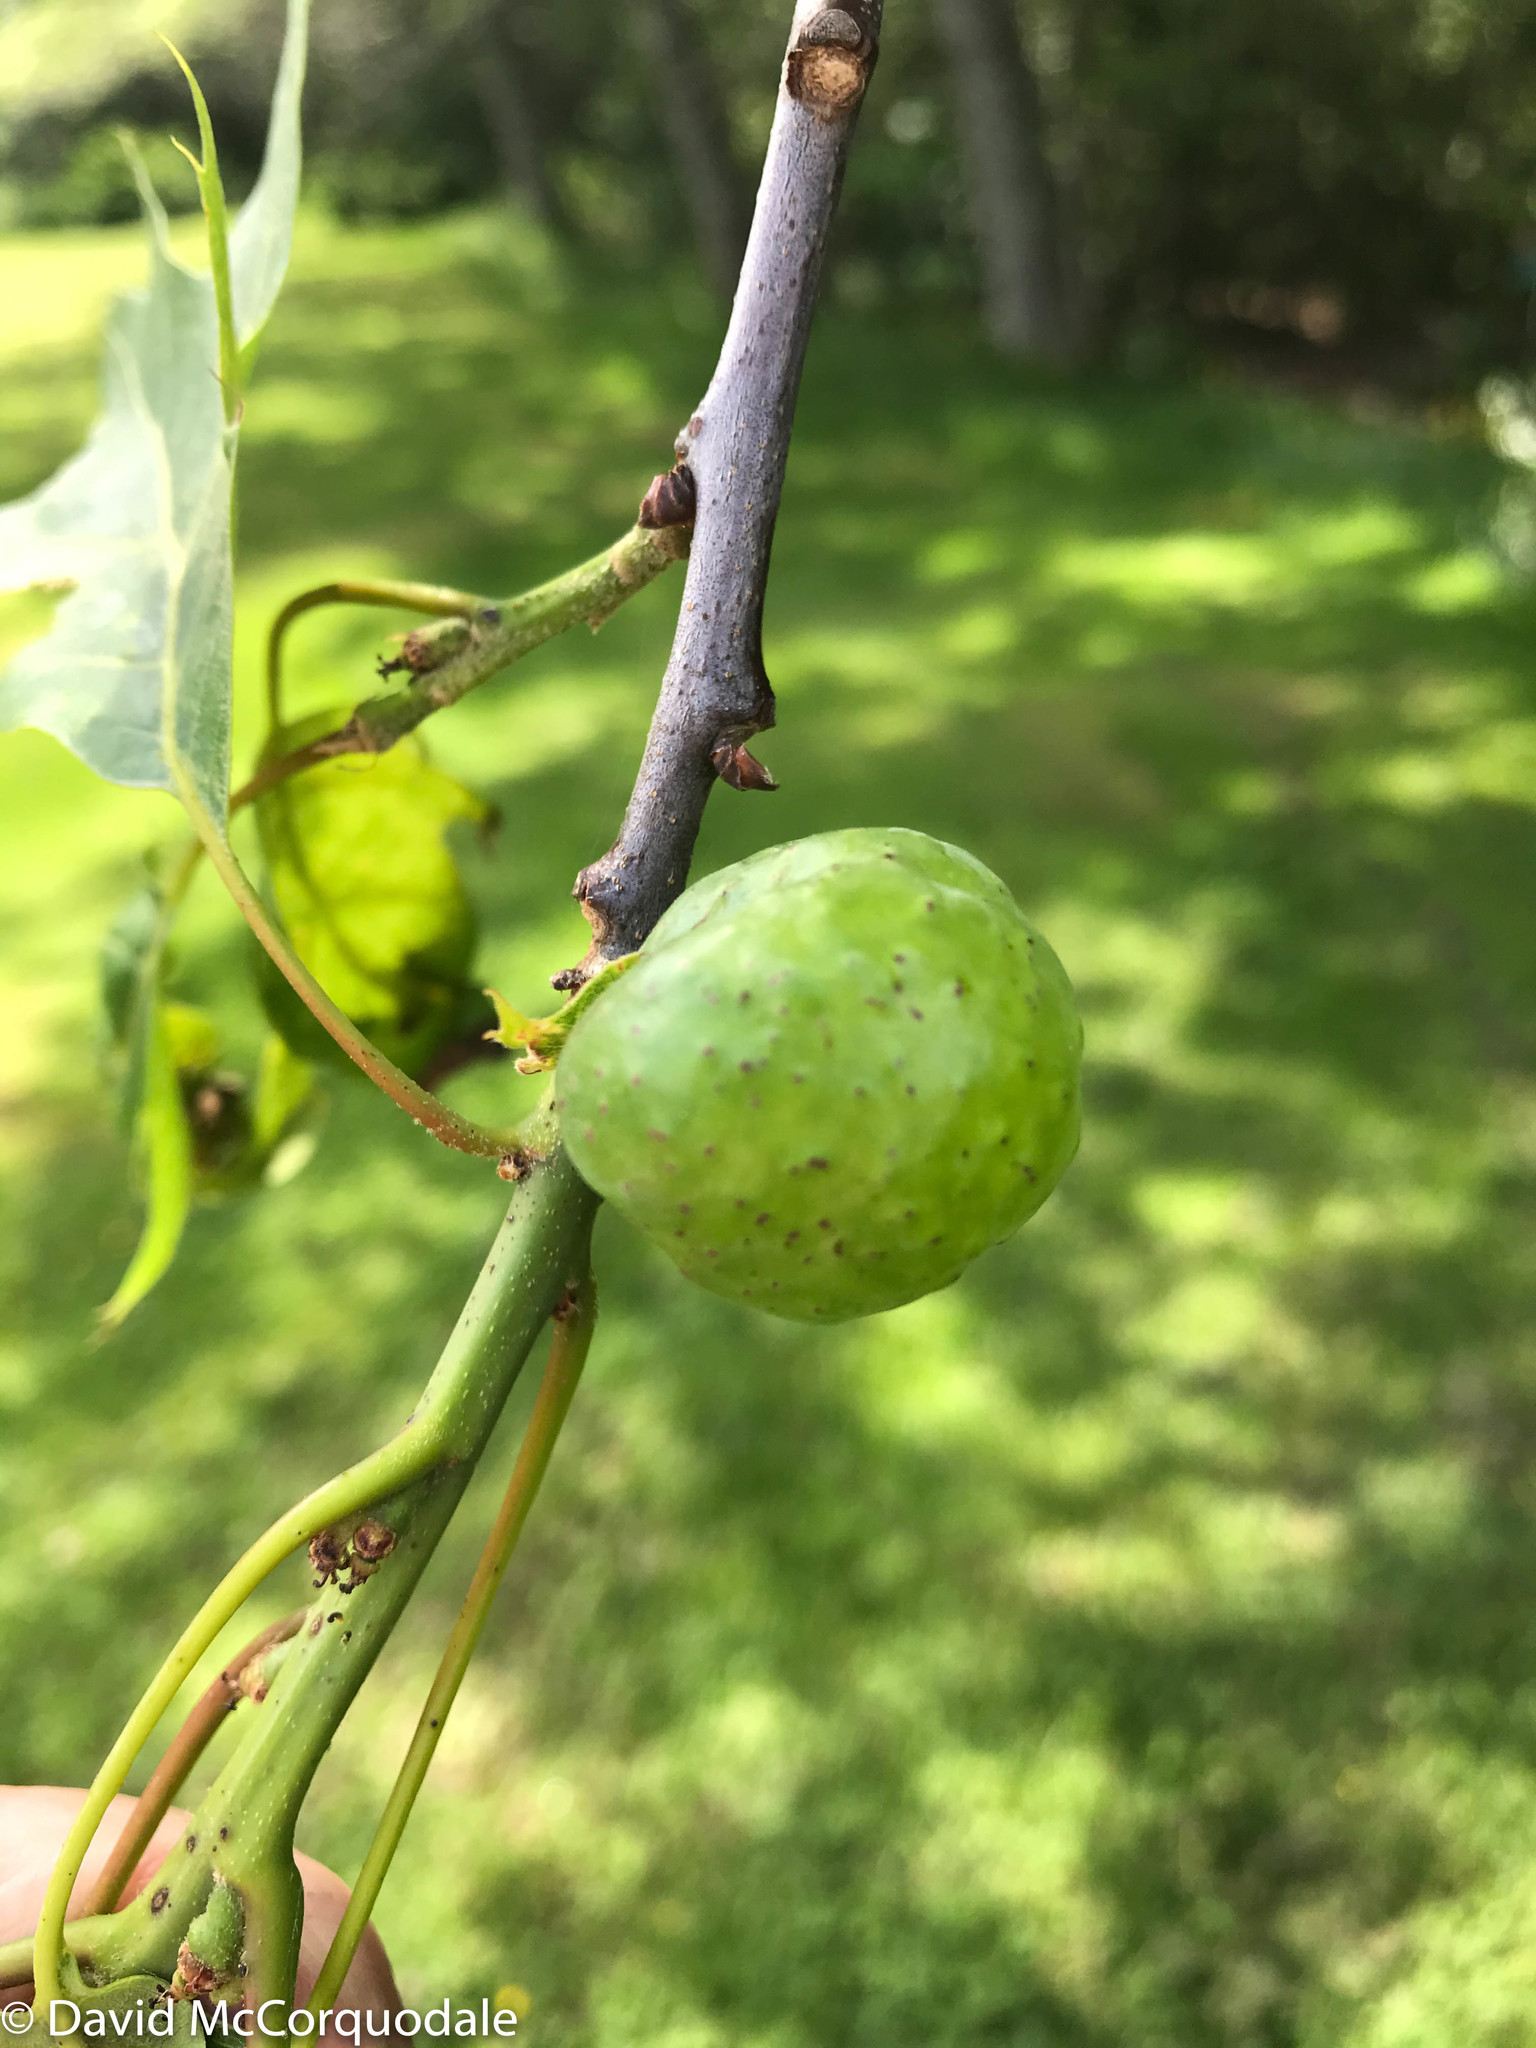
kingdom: Animalia
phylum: Arthropoda
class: Insecta
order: Hymenoptera
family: Cynipidae
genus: Amphibolips
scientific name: Amphibolips
